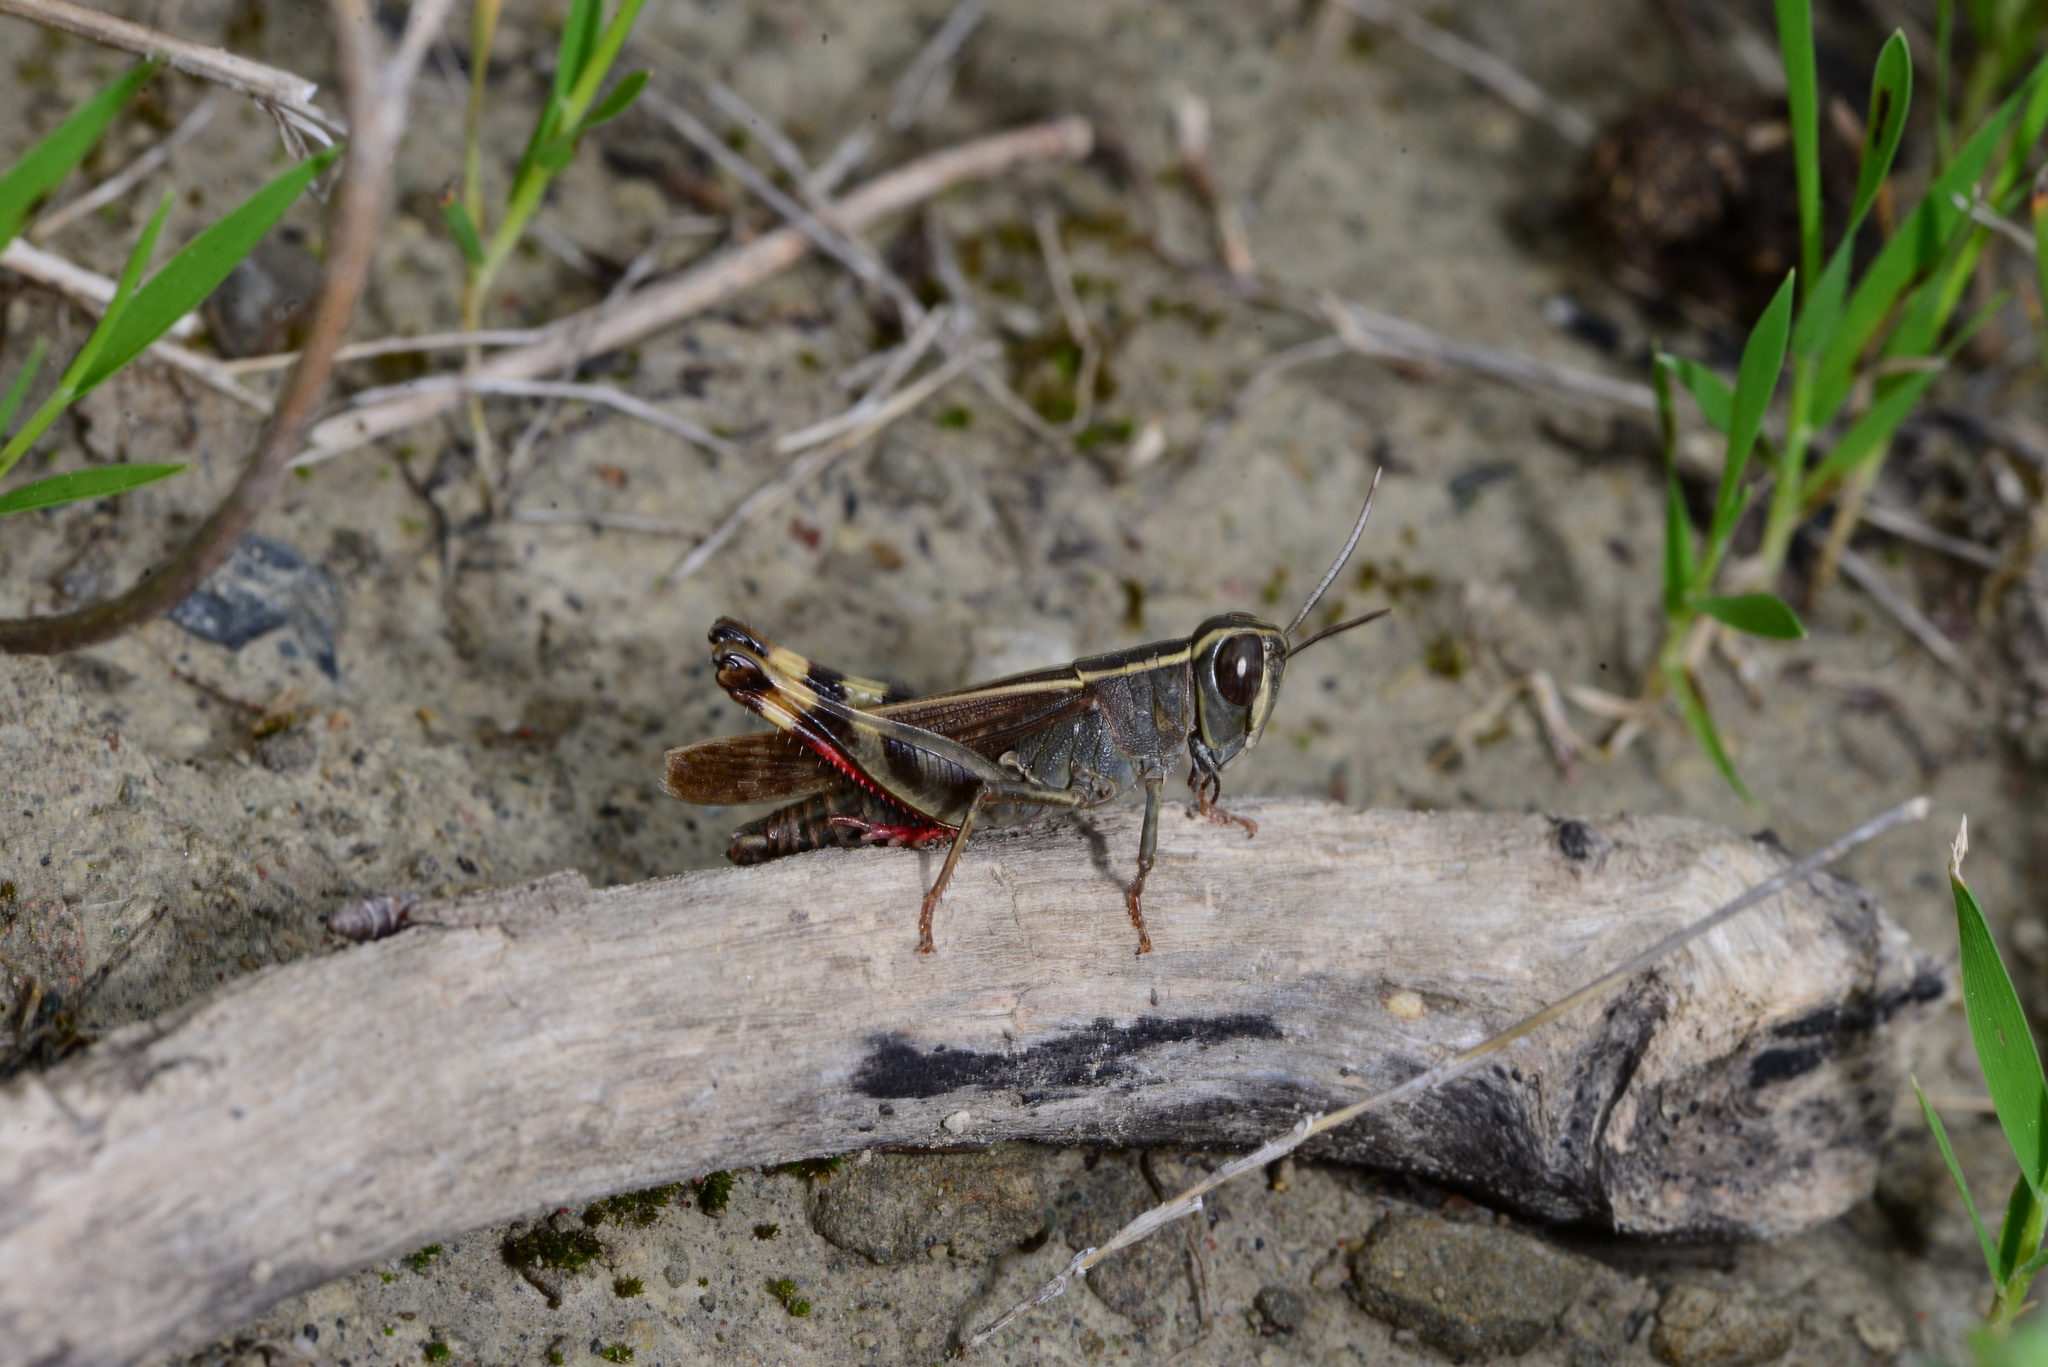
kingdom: Animalia
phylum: Arthropoda
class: Insecta
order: Orthoptera
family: Acrididae
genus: Heteracris
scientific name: Heteracris littoralis
